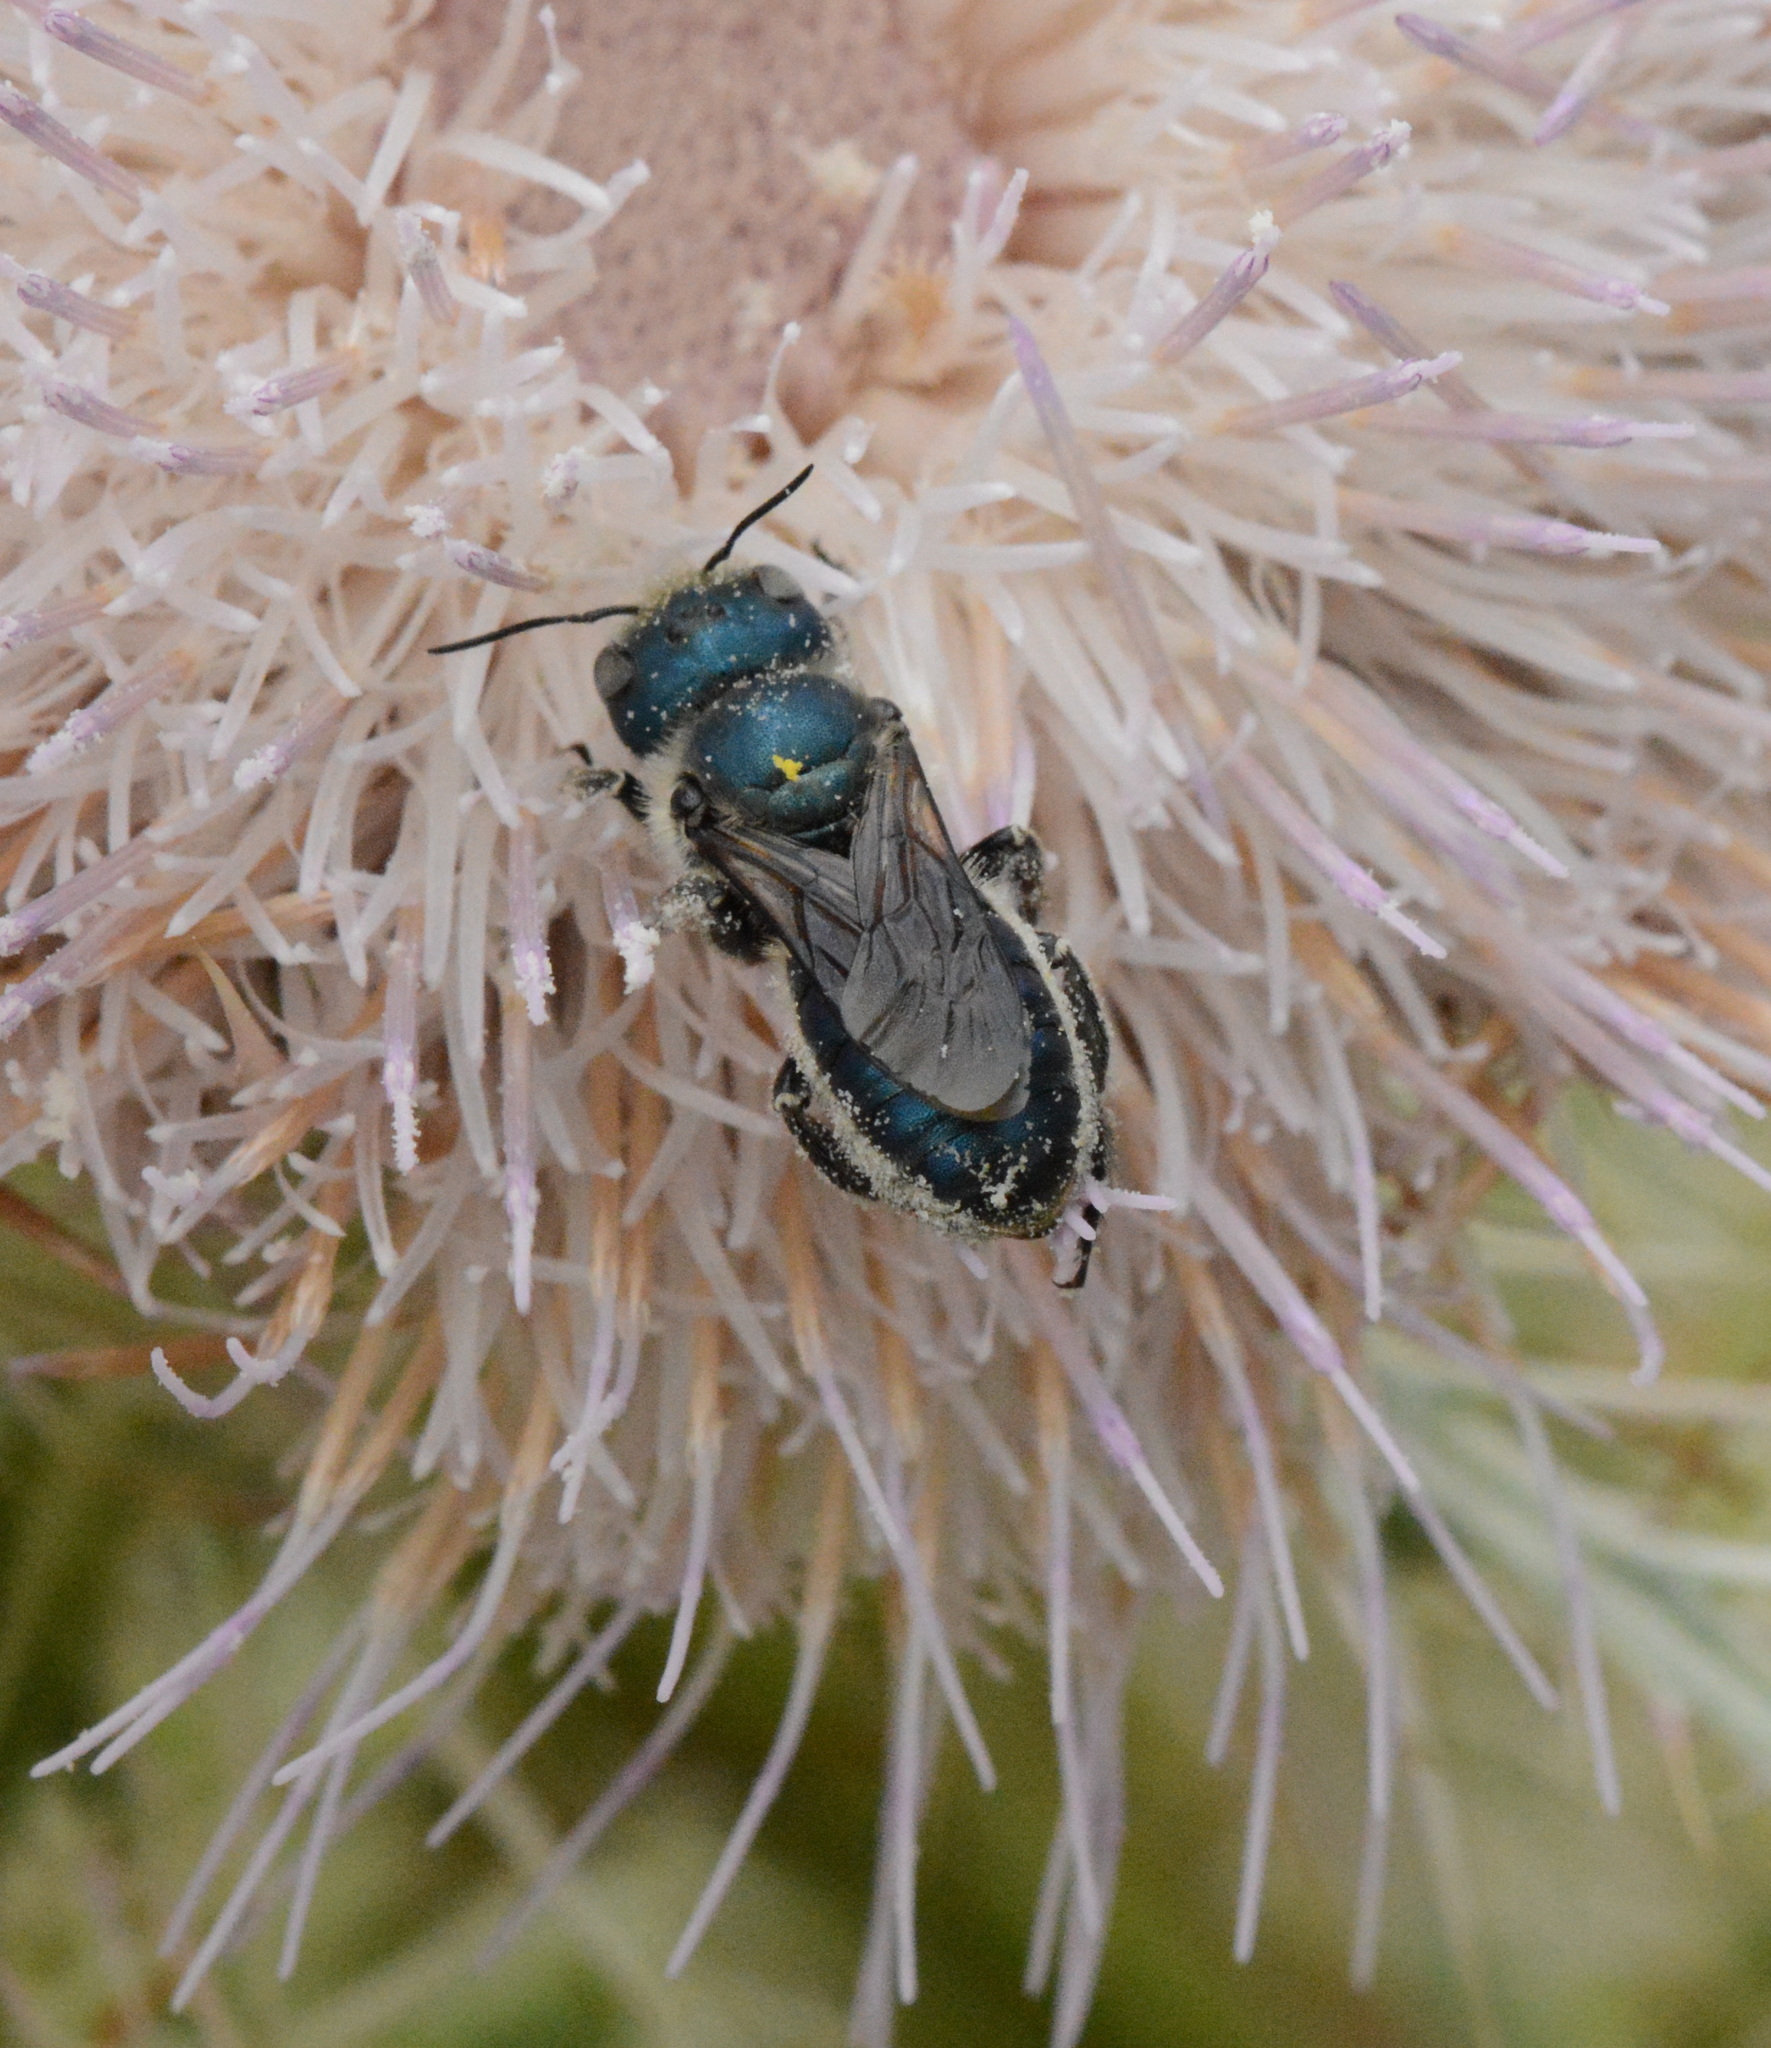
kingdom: Animalia
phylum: Arthropoda
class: Insecta
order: Hymenoptera
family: Megachilidae
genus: Osmia
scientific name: Osmia chalybea
